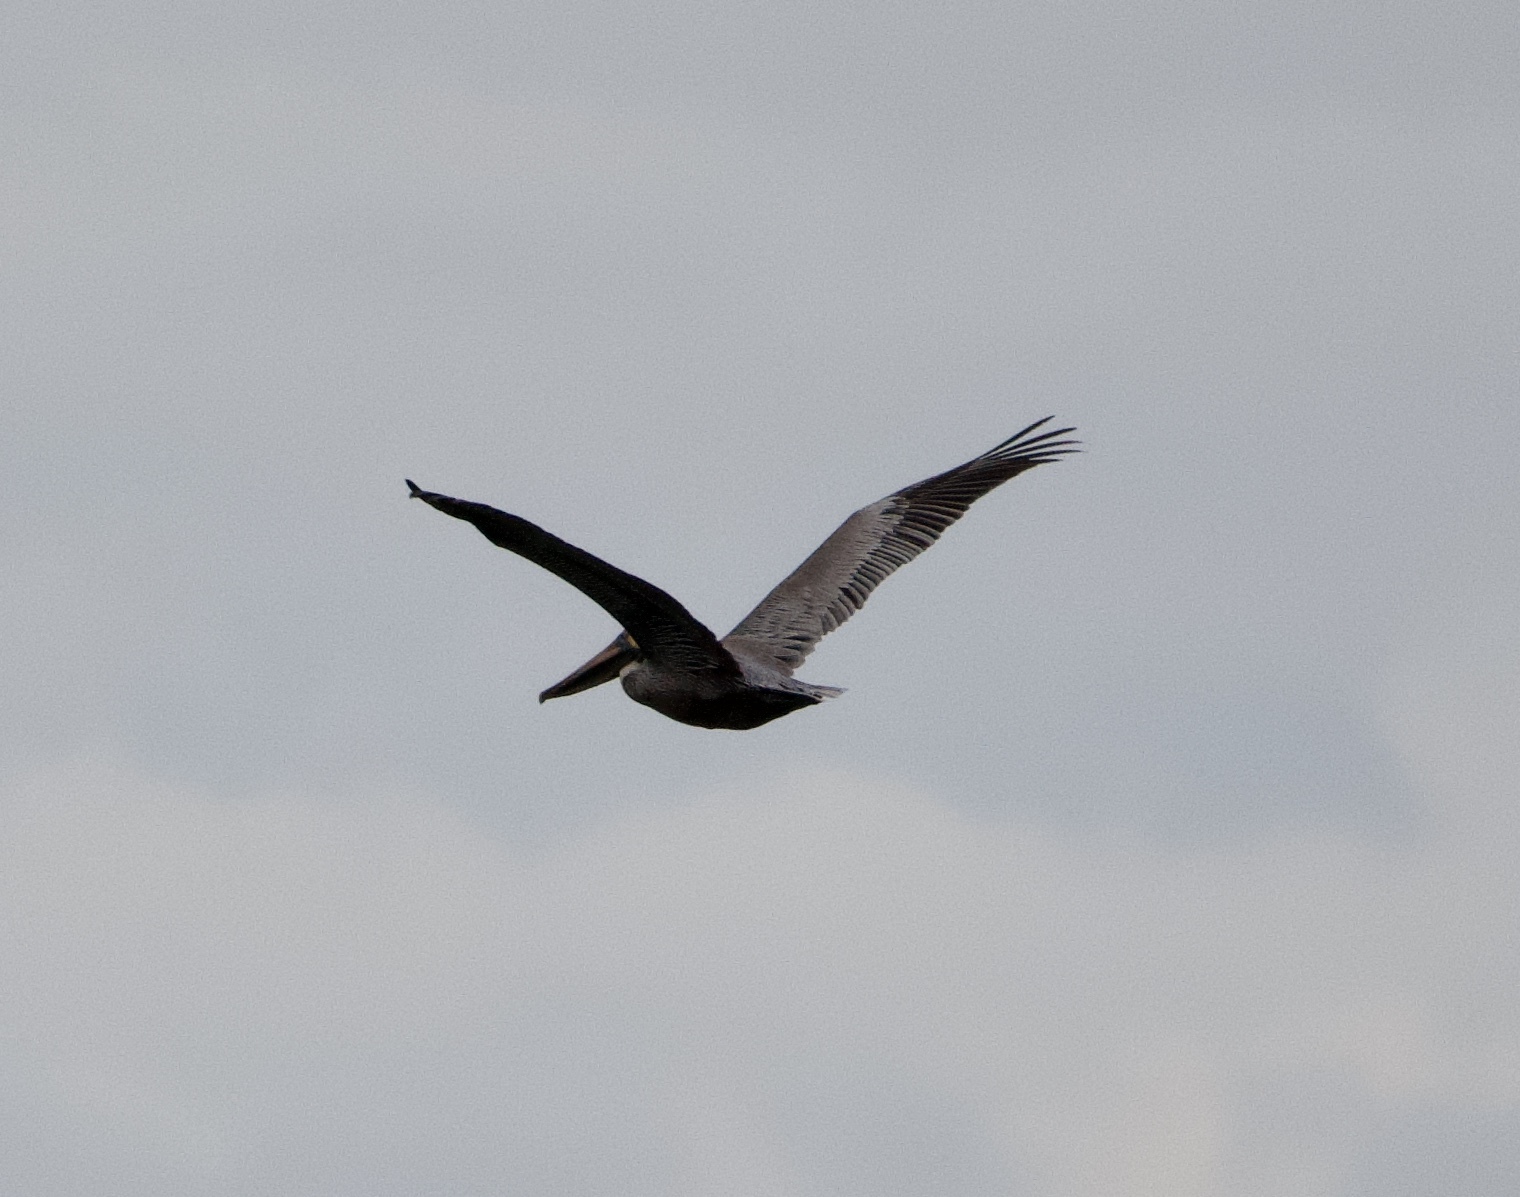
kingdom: Animalia
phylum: Chordata
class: Aves
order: Pelecaniformes
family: Pelecanidae
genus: Pelecanus
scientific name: Pelecanus occidentalis
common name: Brown pelican
